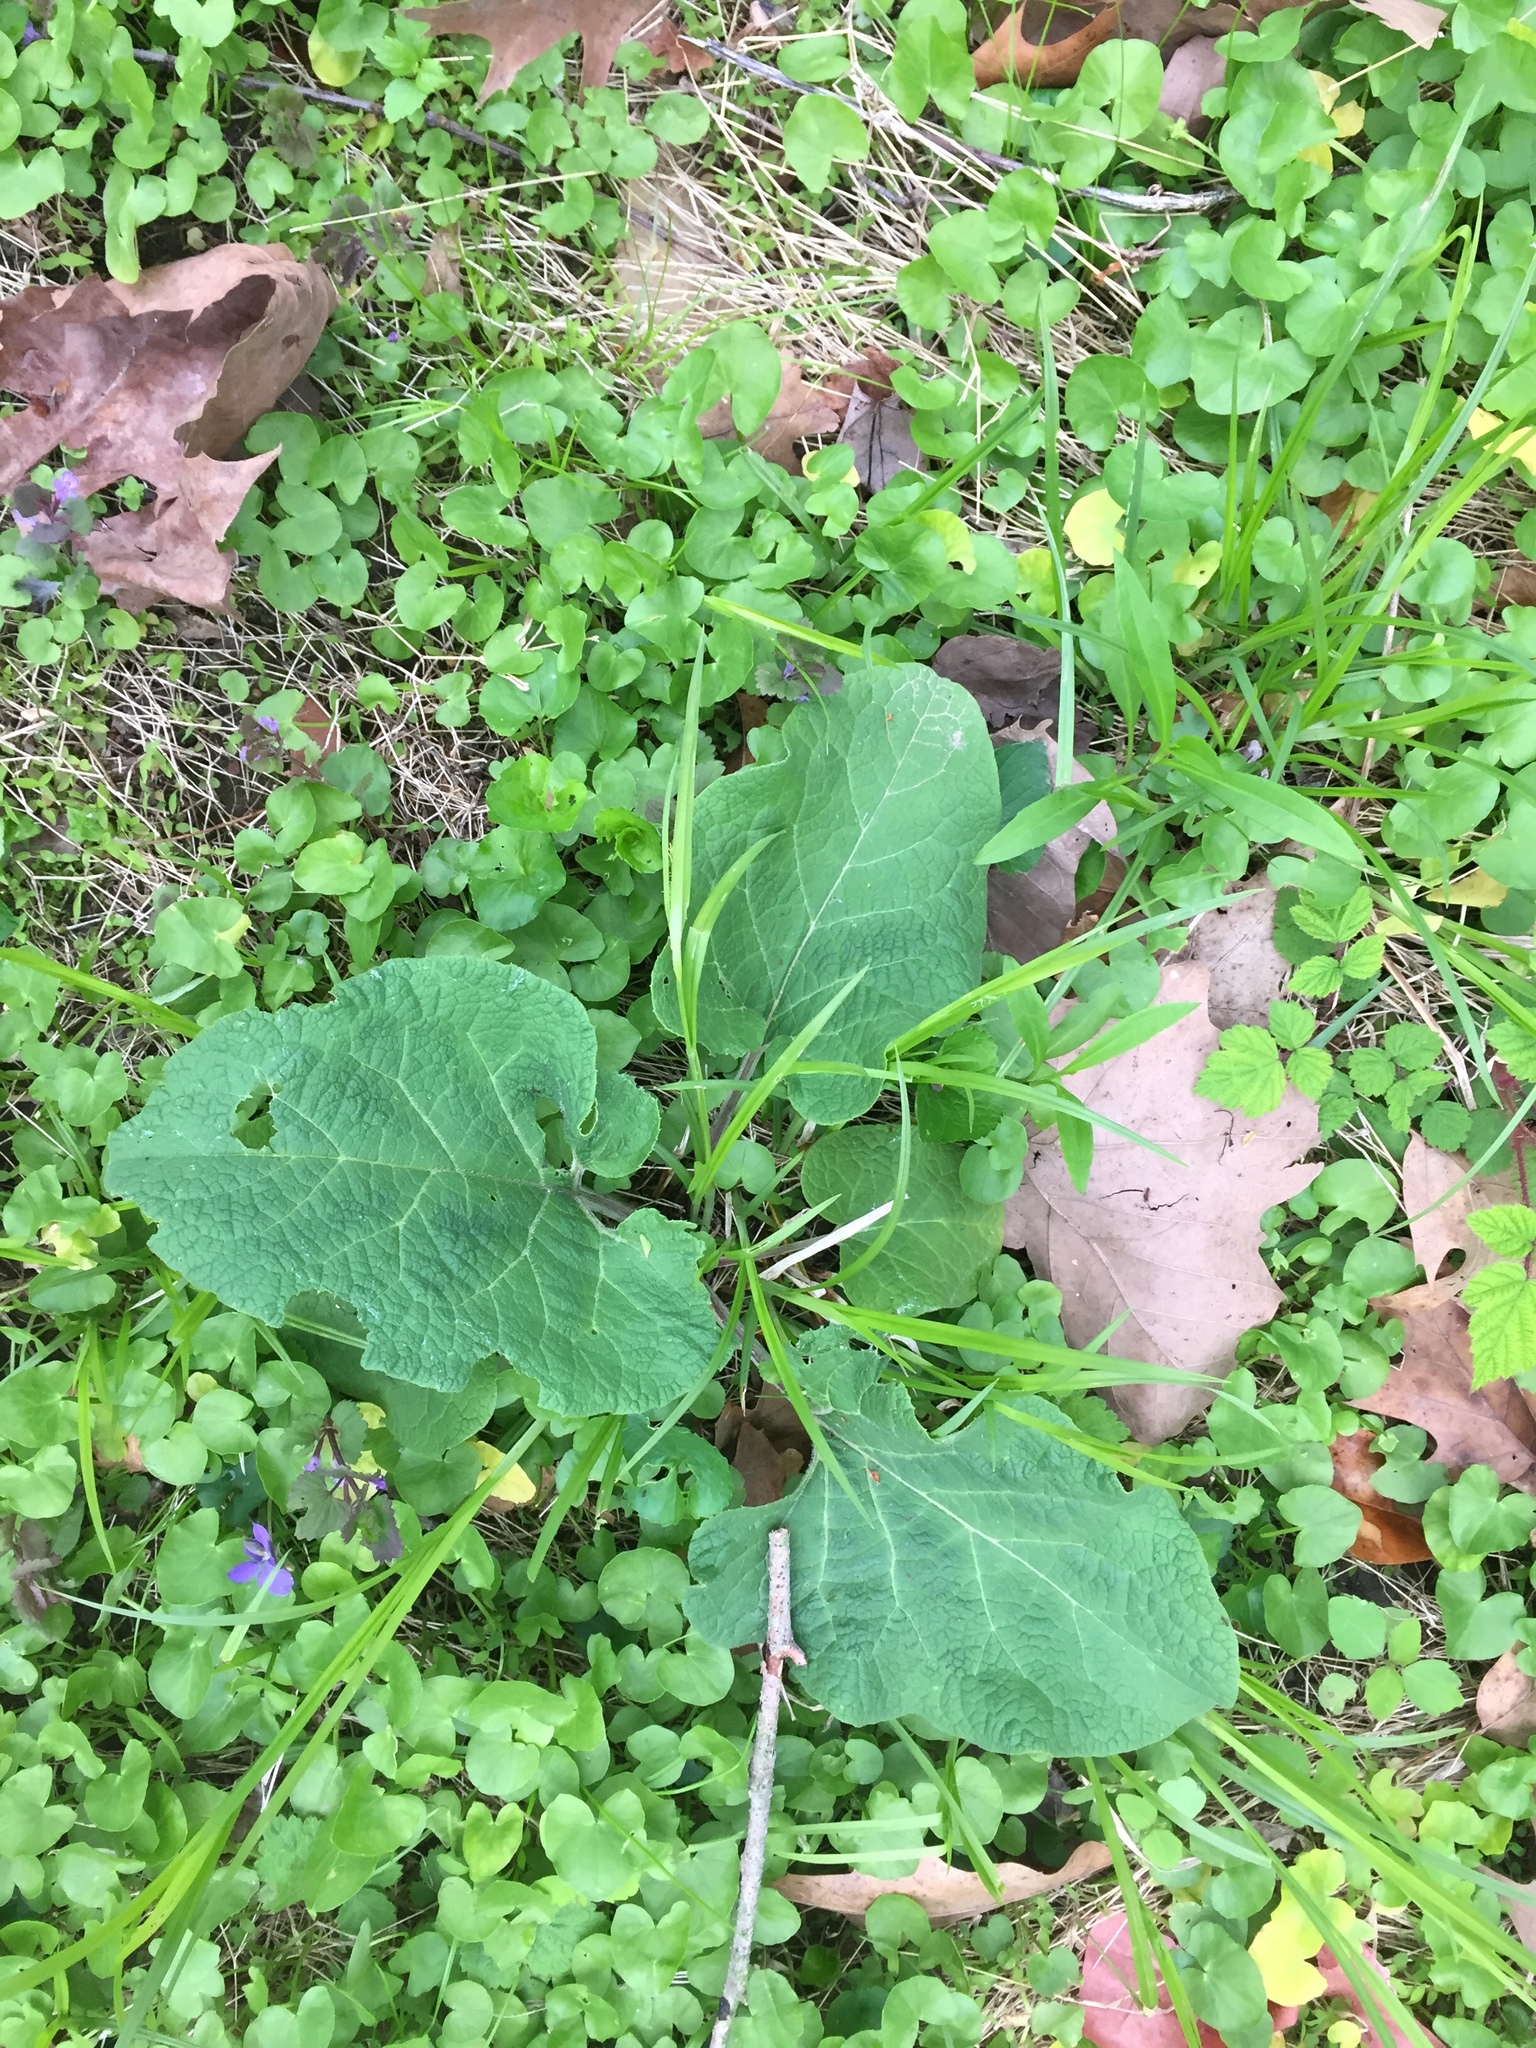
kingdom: Plantae
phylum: Tracheophyta
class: Magnoliopsida
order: Asterales
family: Asteraceae
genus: Arctium
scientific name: Arctium
